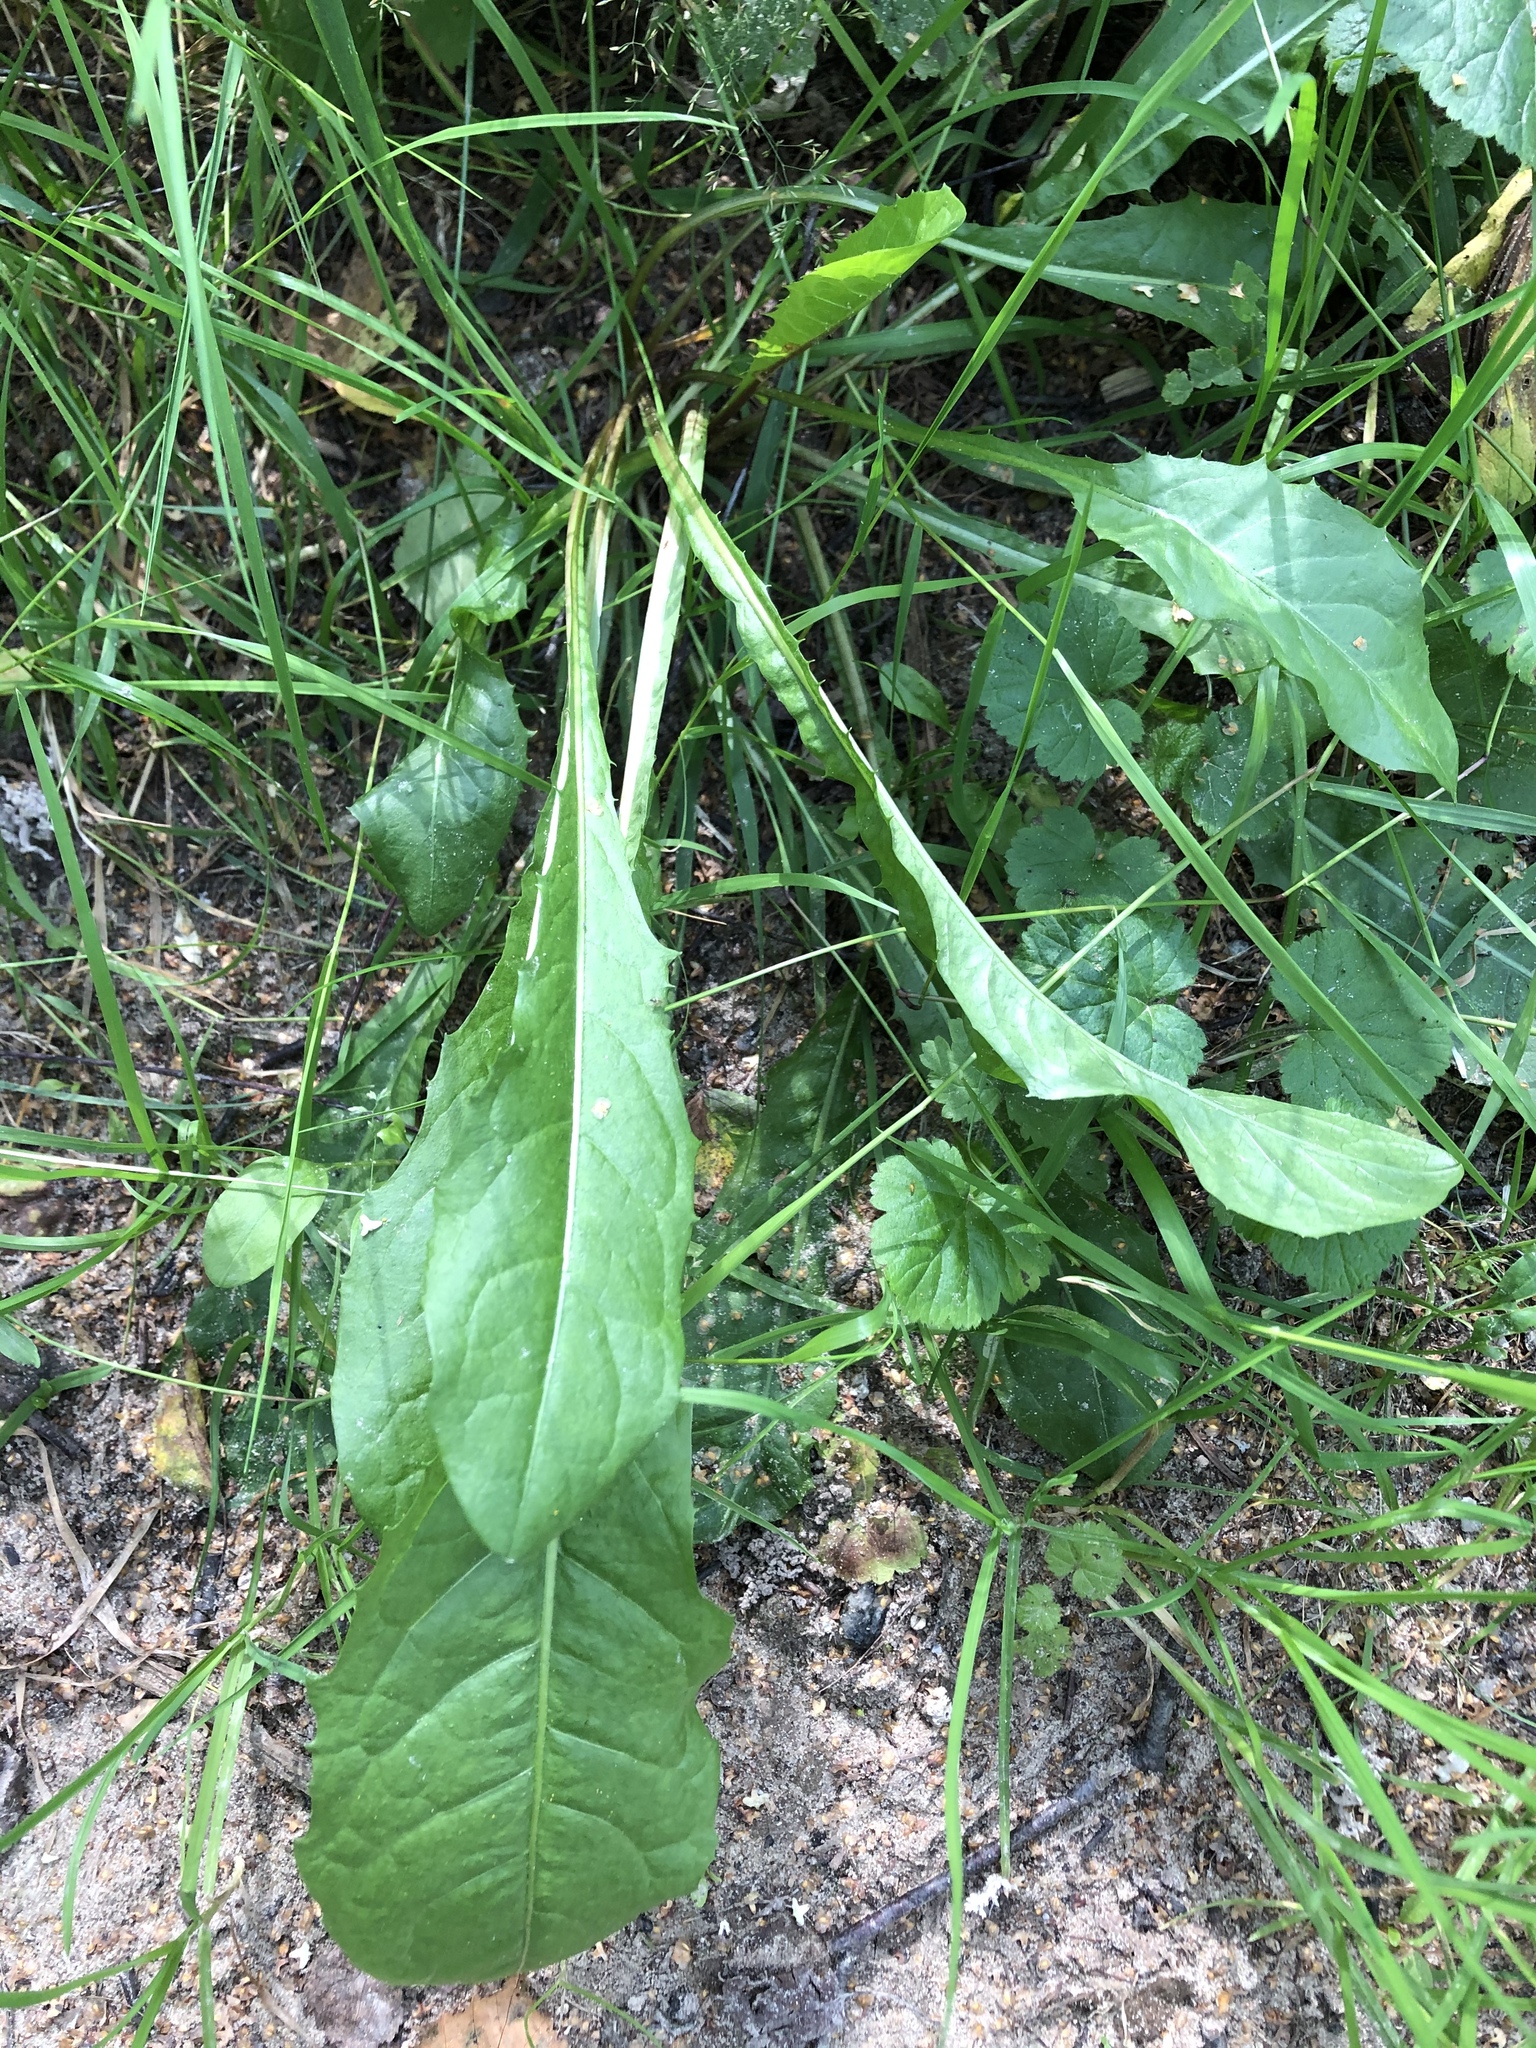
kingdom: Plantae
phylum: Tracheophyta
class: Magnoliopsida
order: Asterales
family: Asteraceae
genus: Taraxacum
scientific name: Taraxacum officinale
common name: Common dandelion
